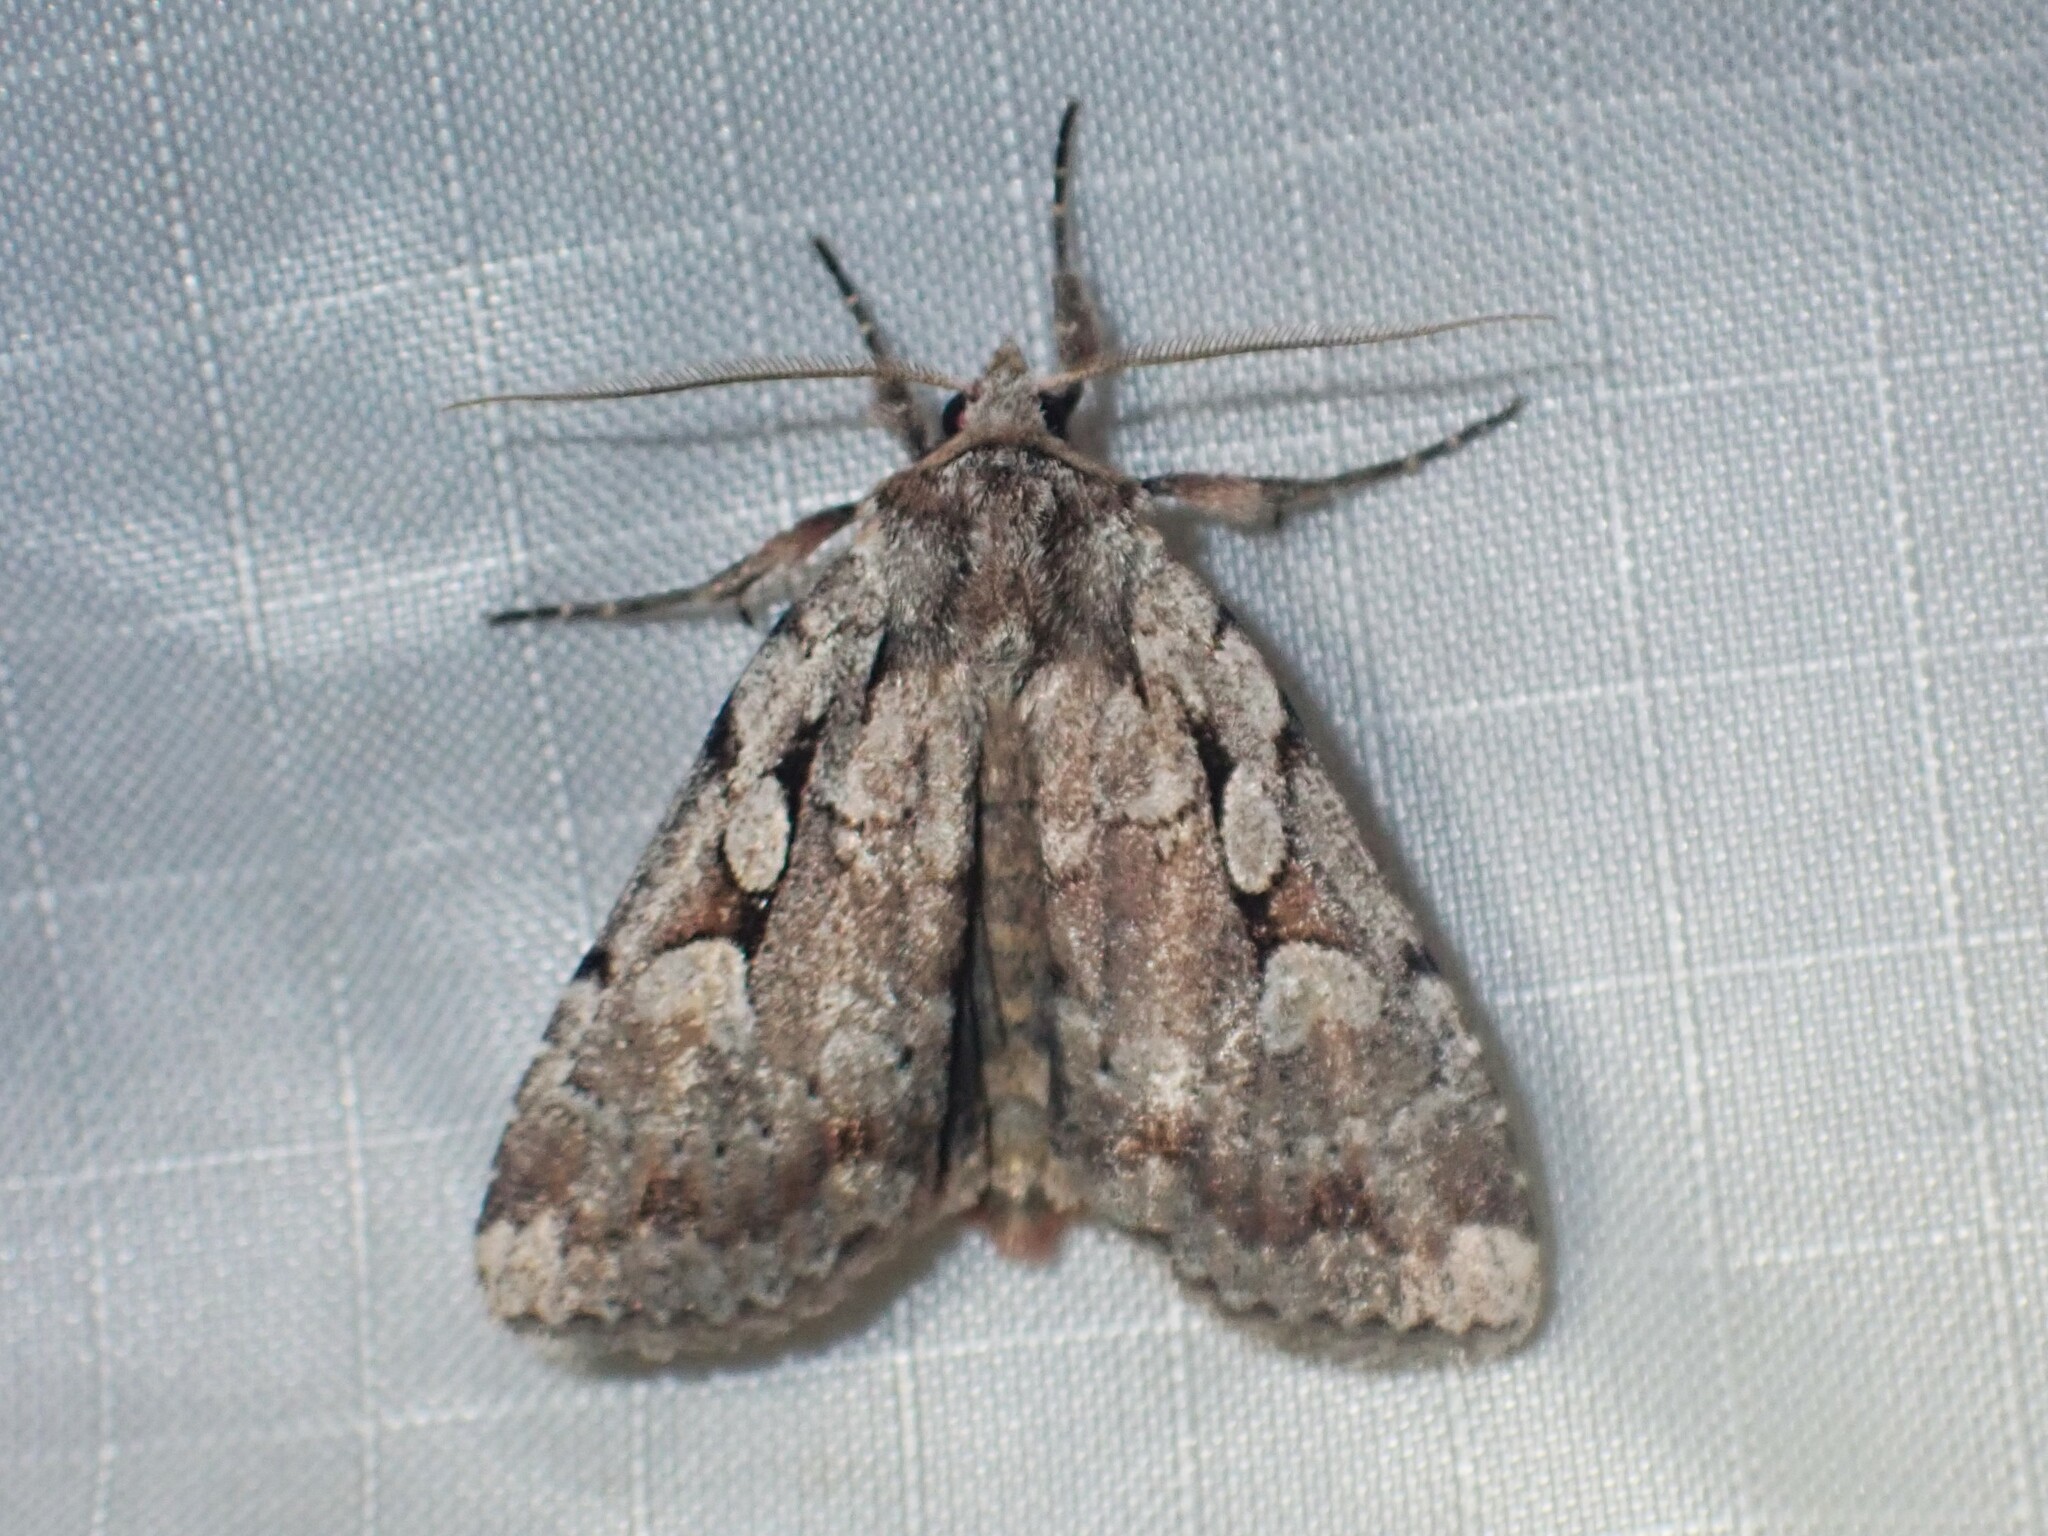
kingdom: Animalia
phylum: Arthropoda
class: Insecta
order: Lepidoptera
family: Noctuidae
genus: Xestia
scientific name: Xestia badicollis
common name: Northern variable dart
